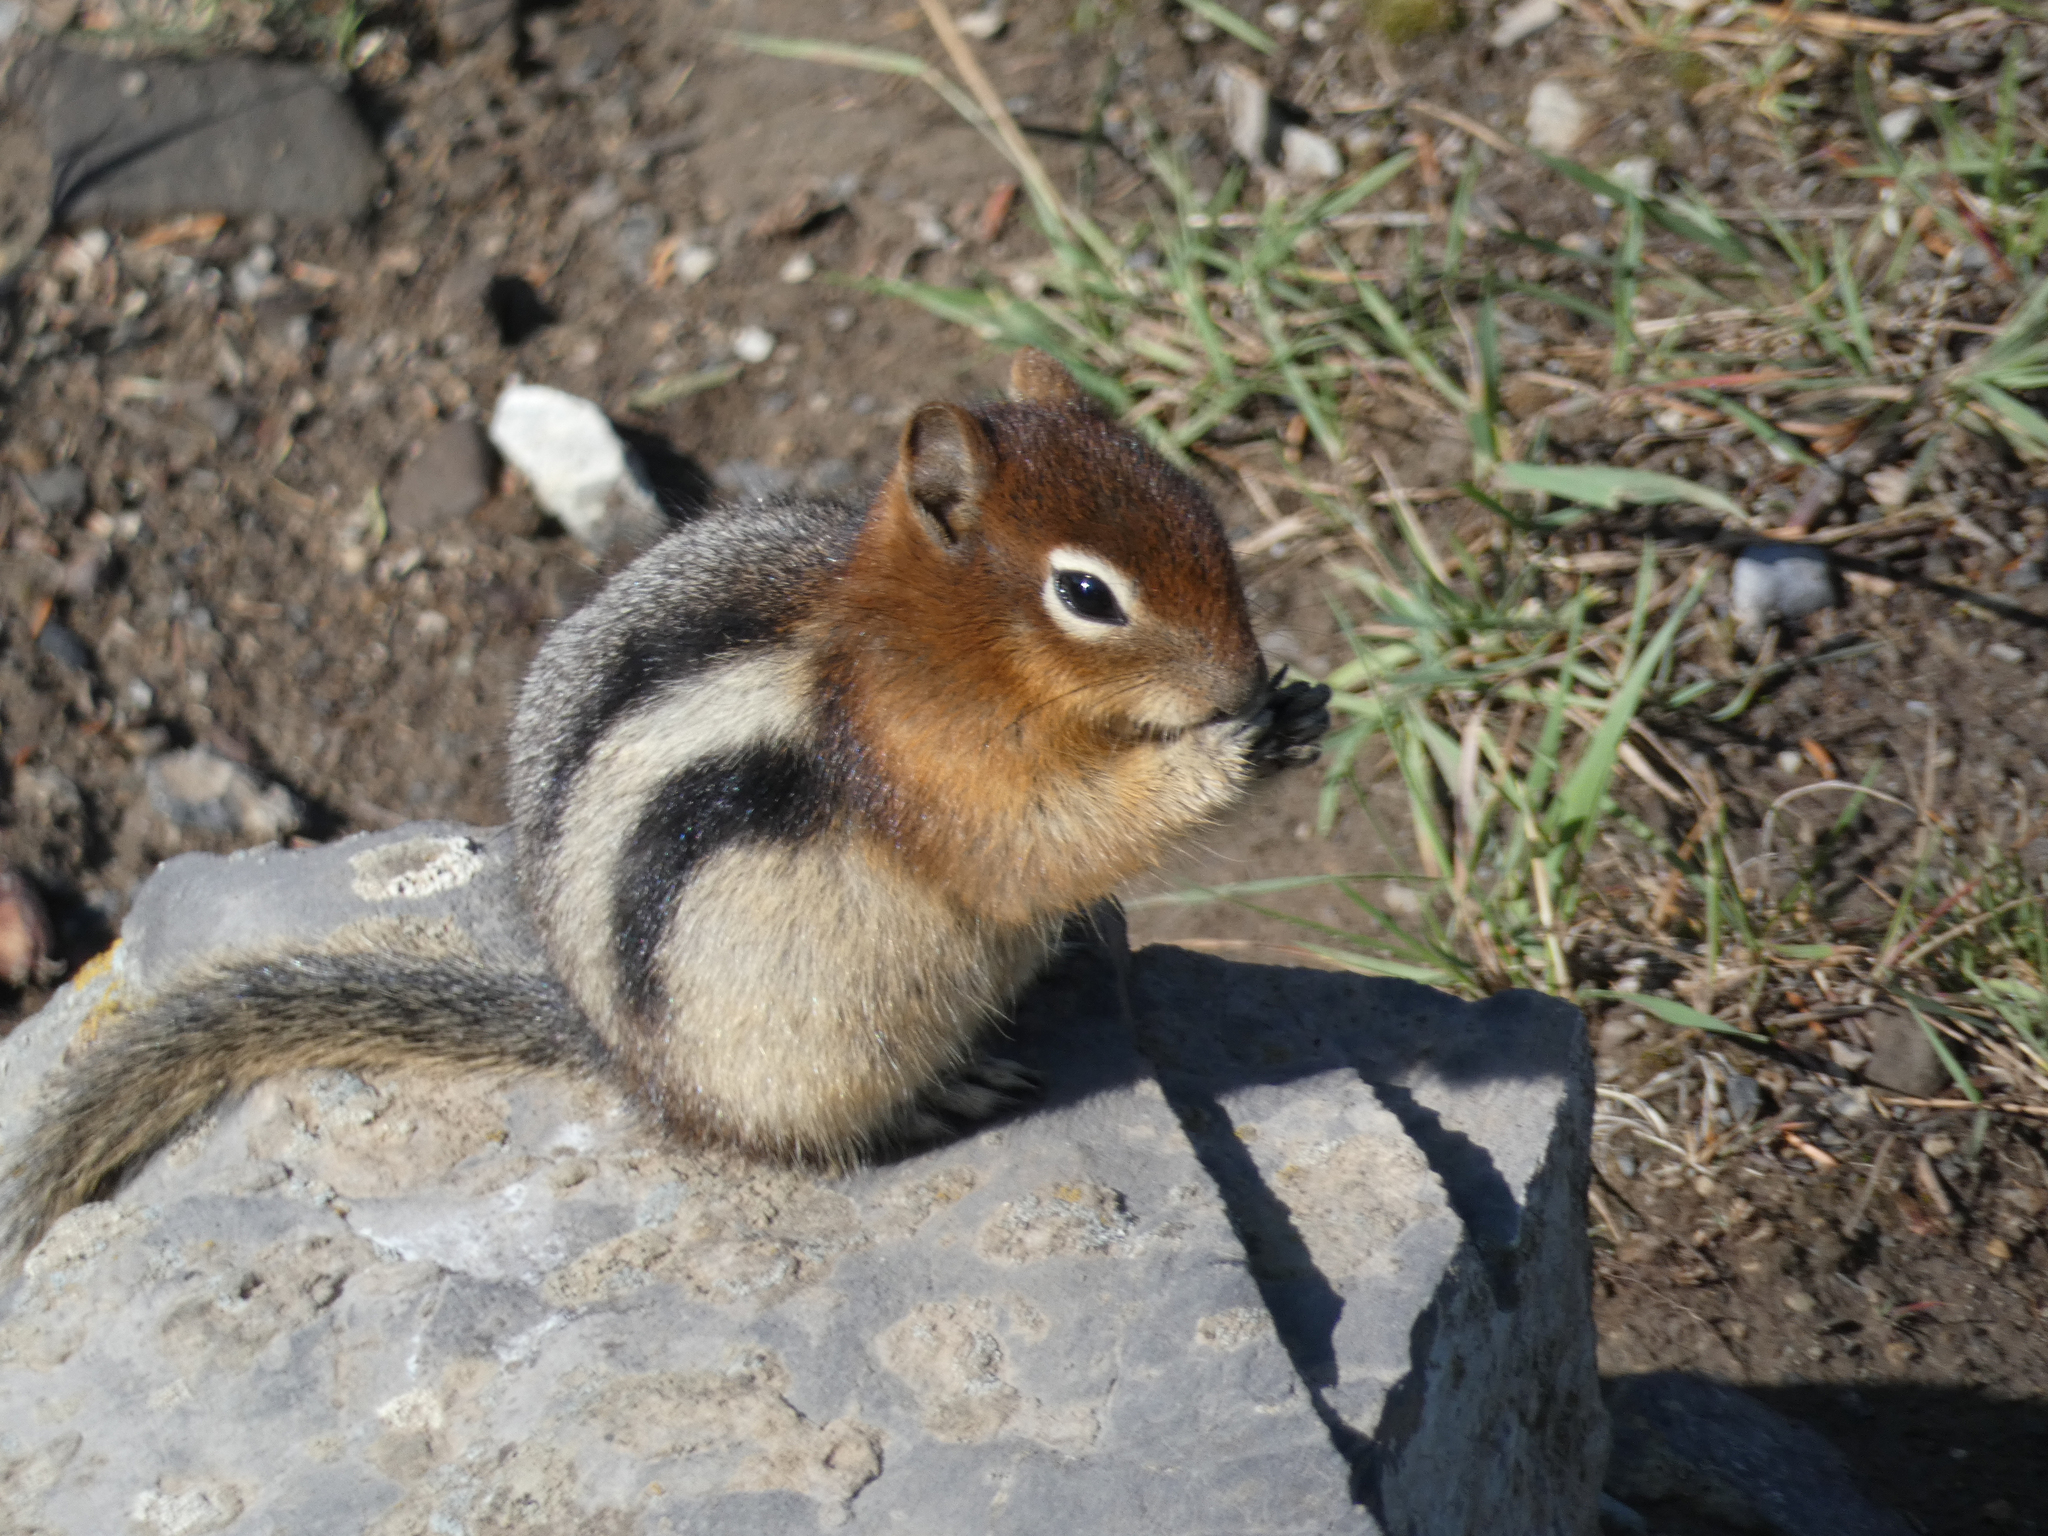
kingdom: Animalia
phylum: Chordata
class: Mammalia
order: Rodentia
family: Sciuridae
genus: Callospermophilus
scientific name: Callospermophilus lateralis
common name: Golden-mantled ground squirrel
